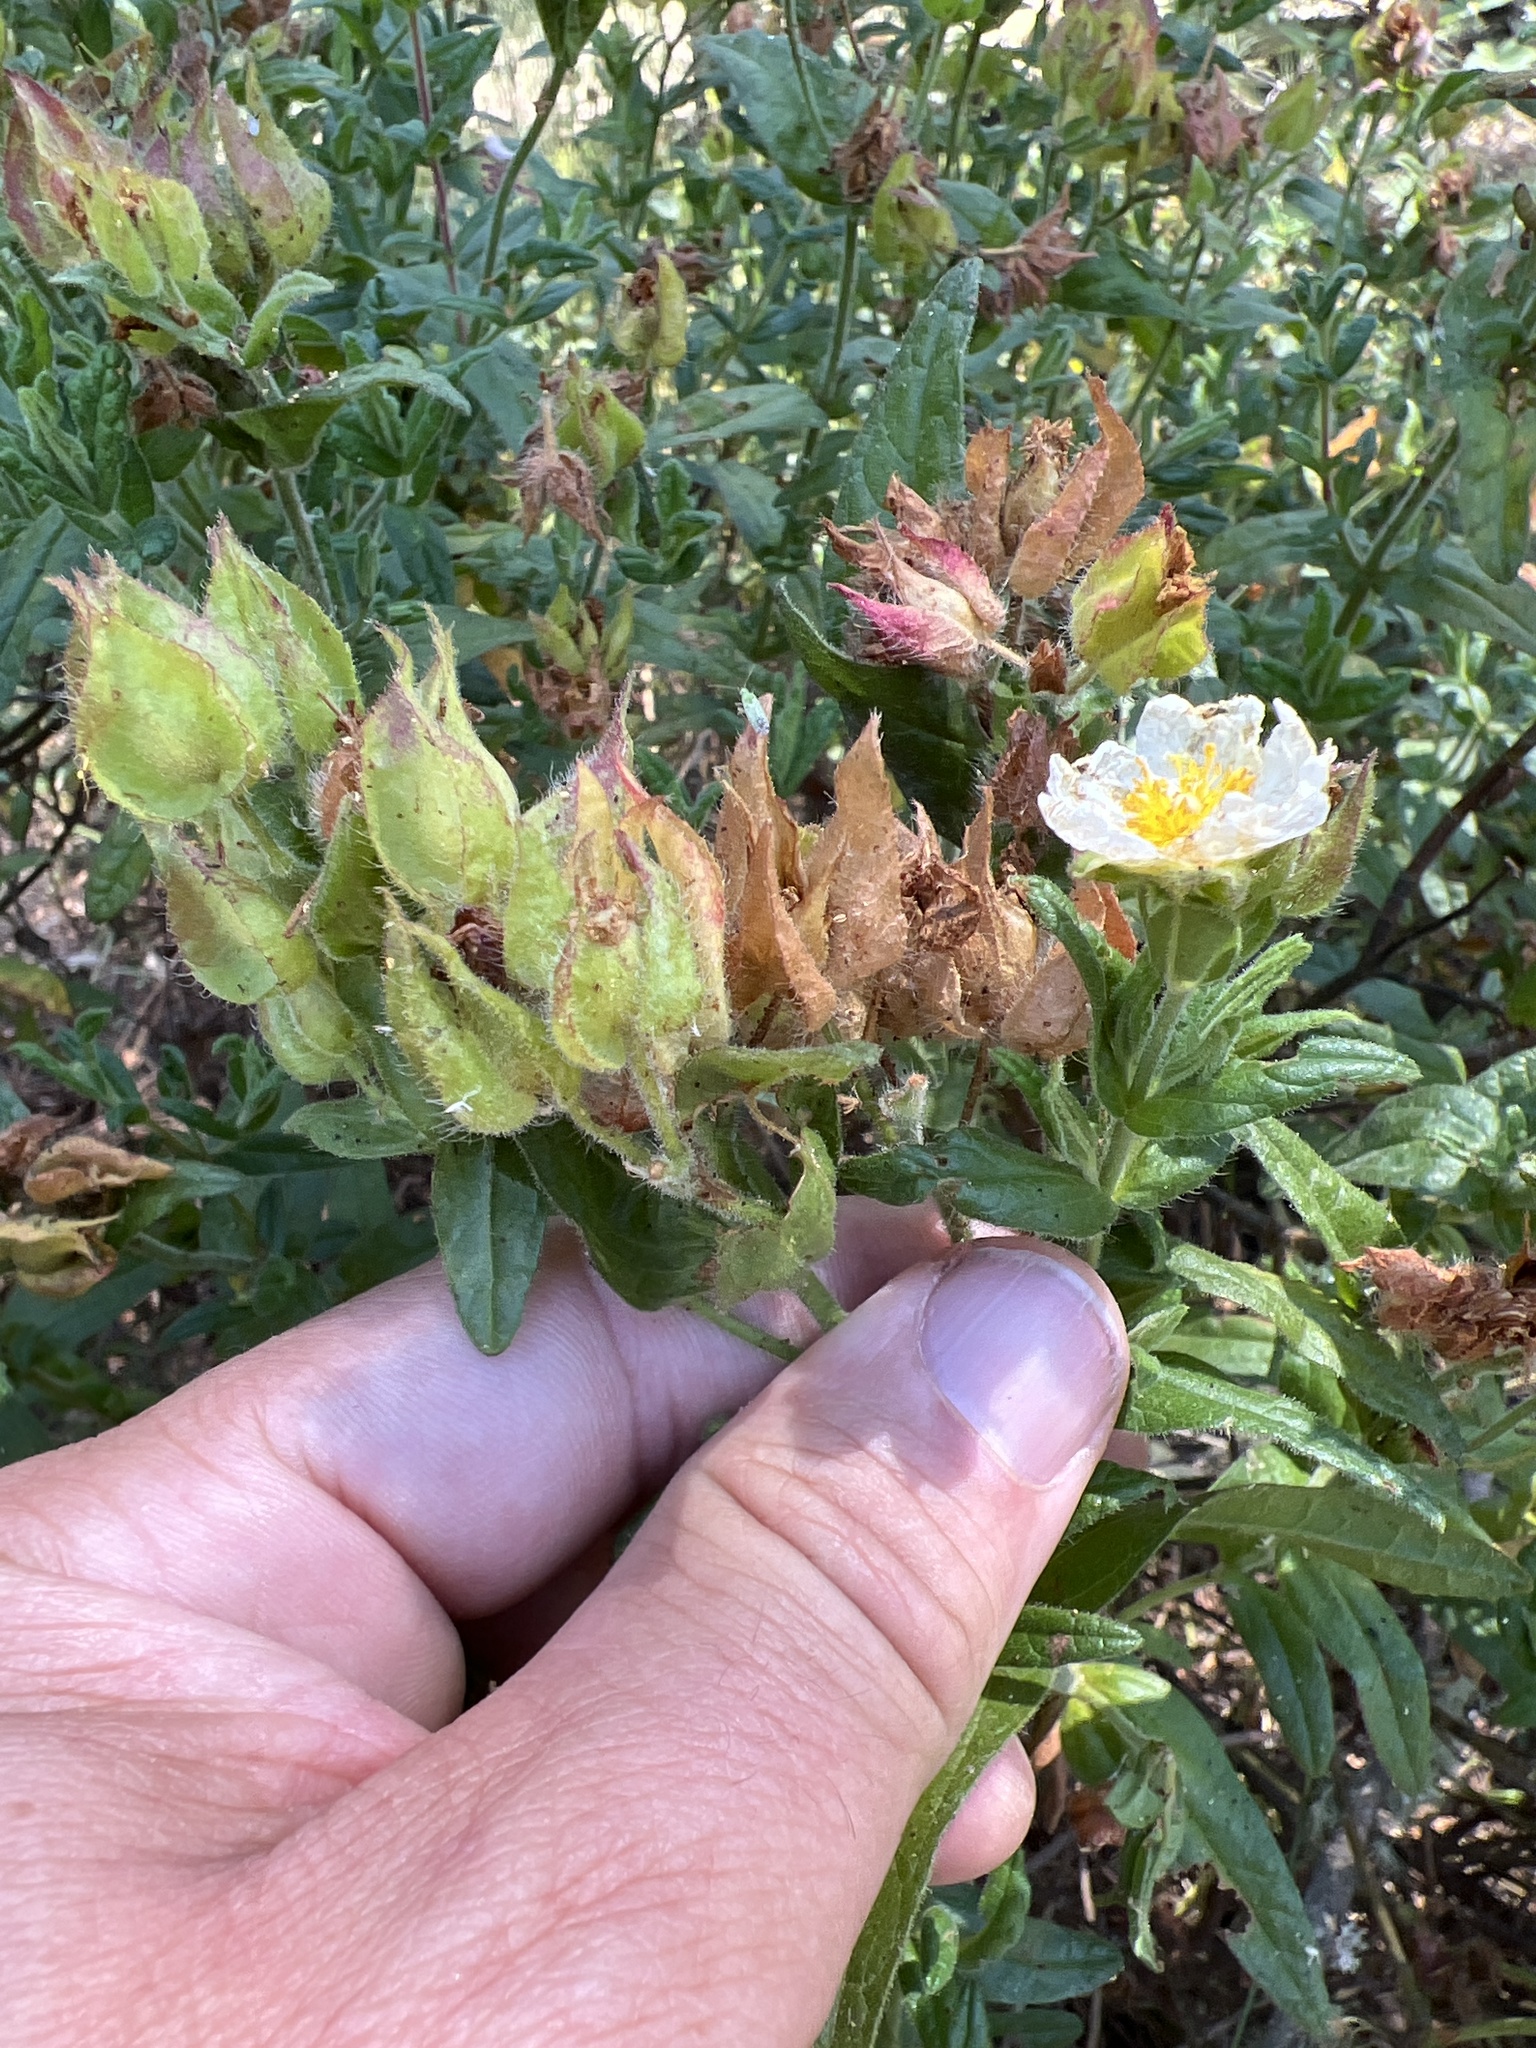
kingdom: Plantae
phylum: Tracheophyta
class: Magnoliopsida
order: Malvales
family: Cistaceae
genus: Cistus
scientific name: Cistus inflatus
